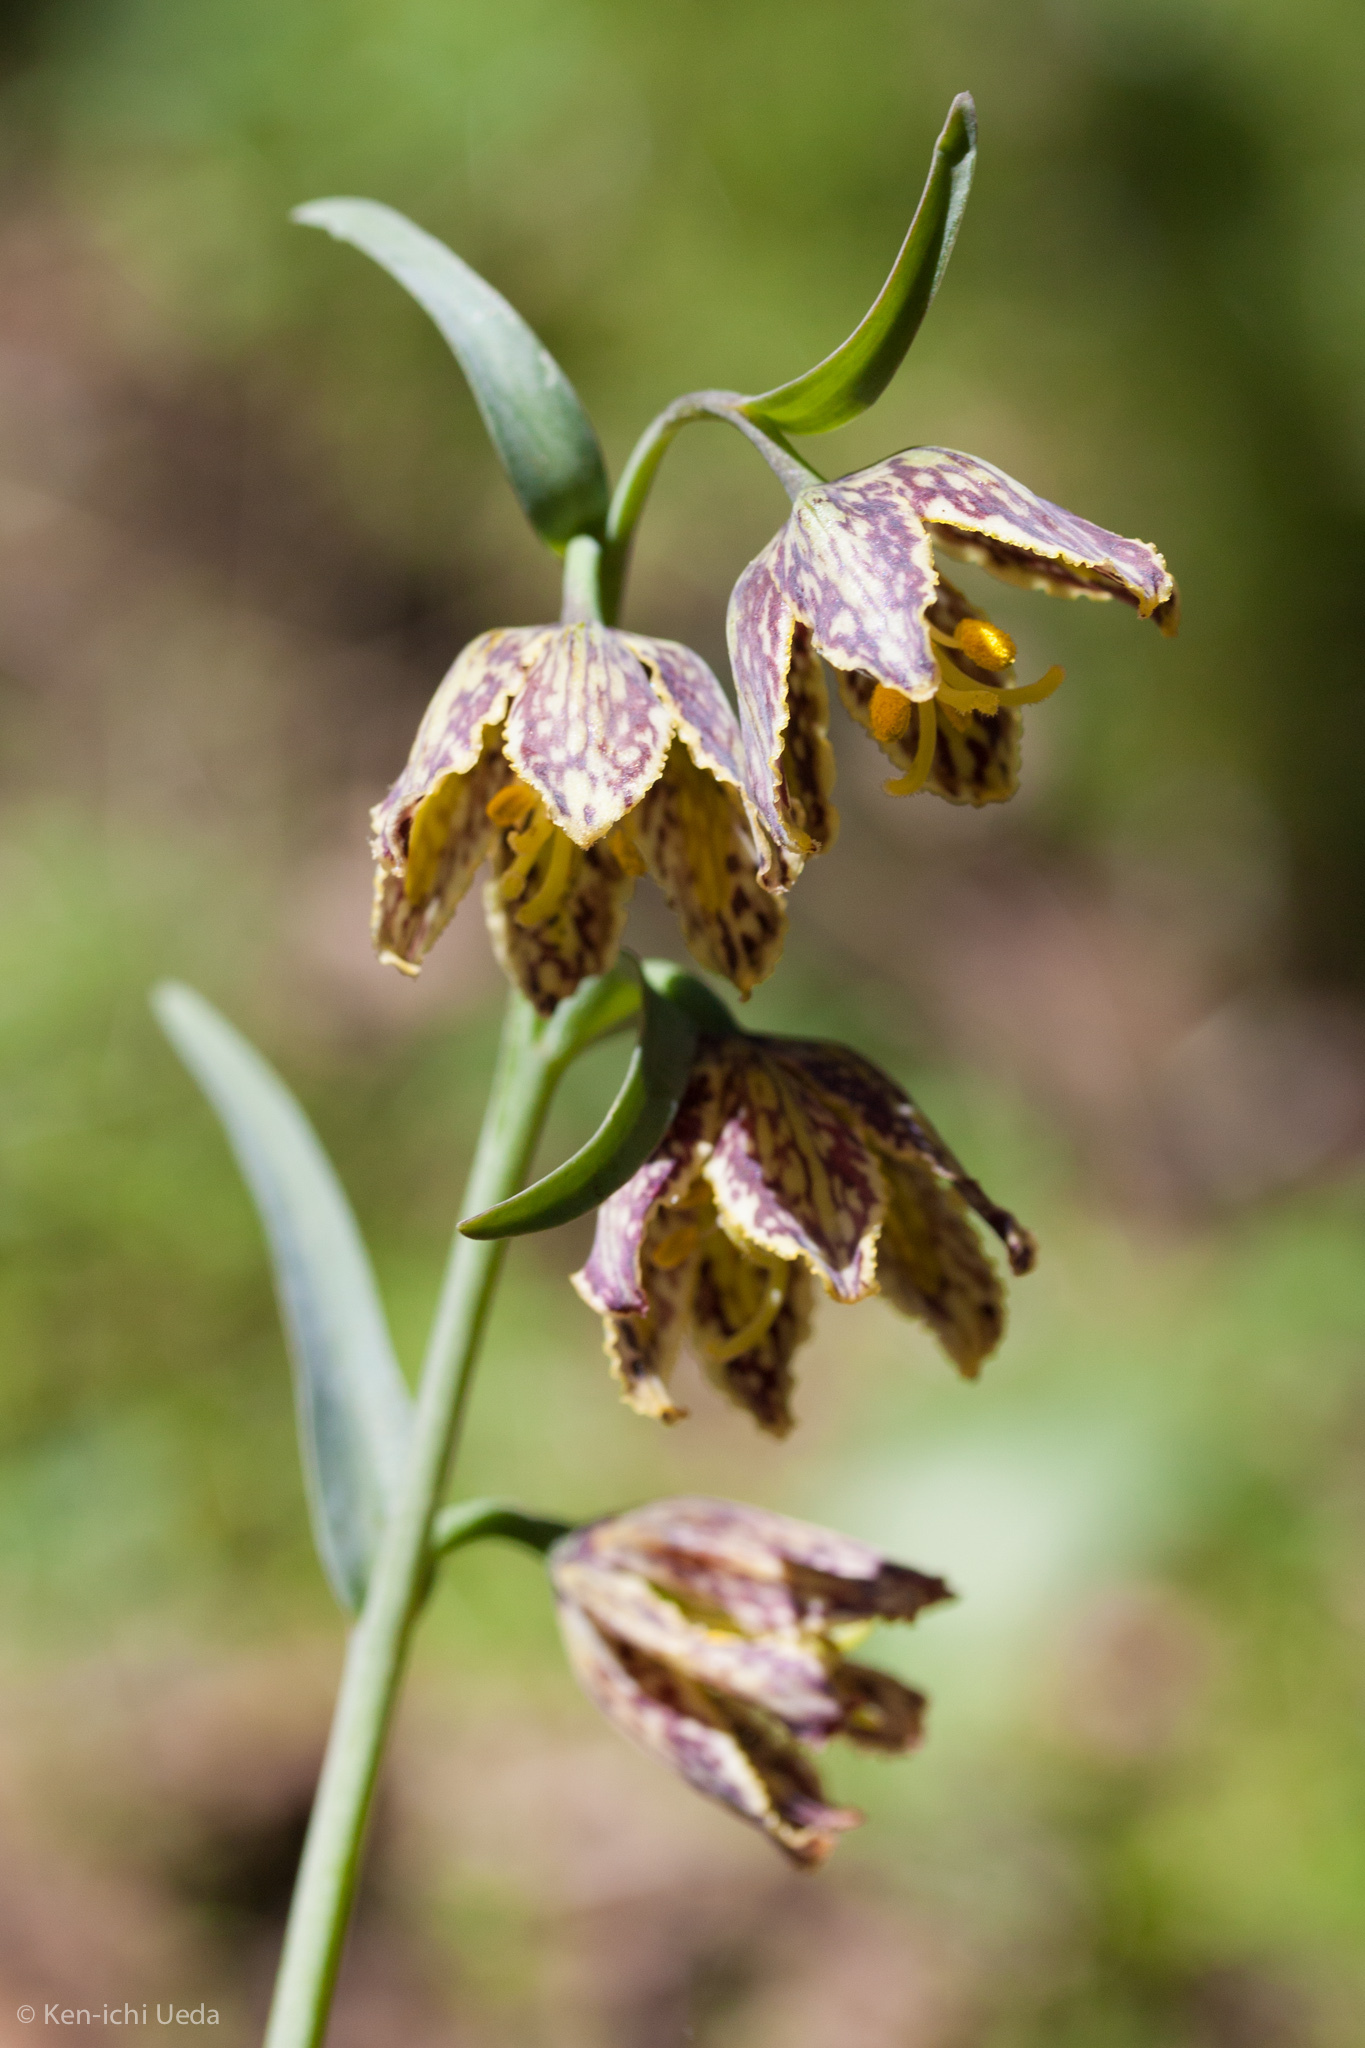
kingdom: Plantae
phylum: Tracheophyta
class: Liliopsida
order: Liliales
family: Liliaceae
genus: Fritillaria
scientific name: Fritillaria affinis
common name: Ojai fritillary
